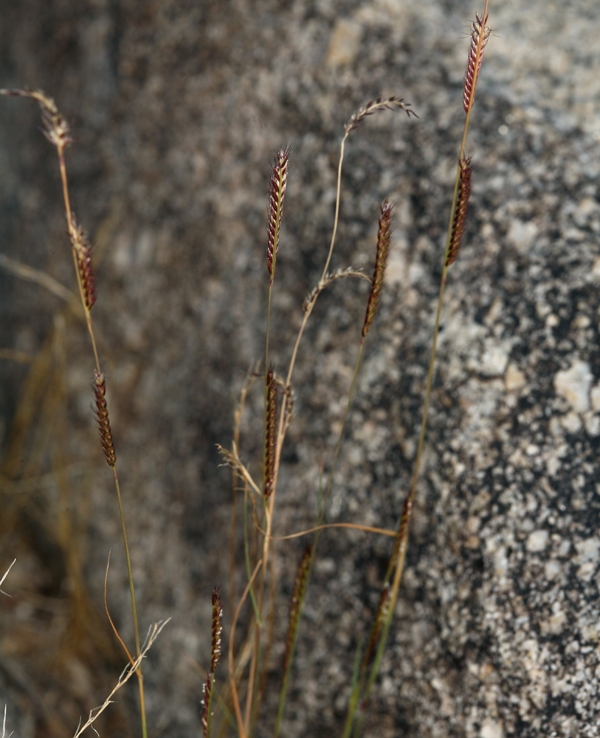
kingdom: Plantae
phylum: Tracheophyta
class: Liliopsida
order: Poales
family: Poaceae
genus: Bouteloua
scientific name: Bouteloua barbata
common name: Six-weeks grama
